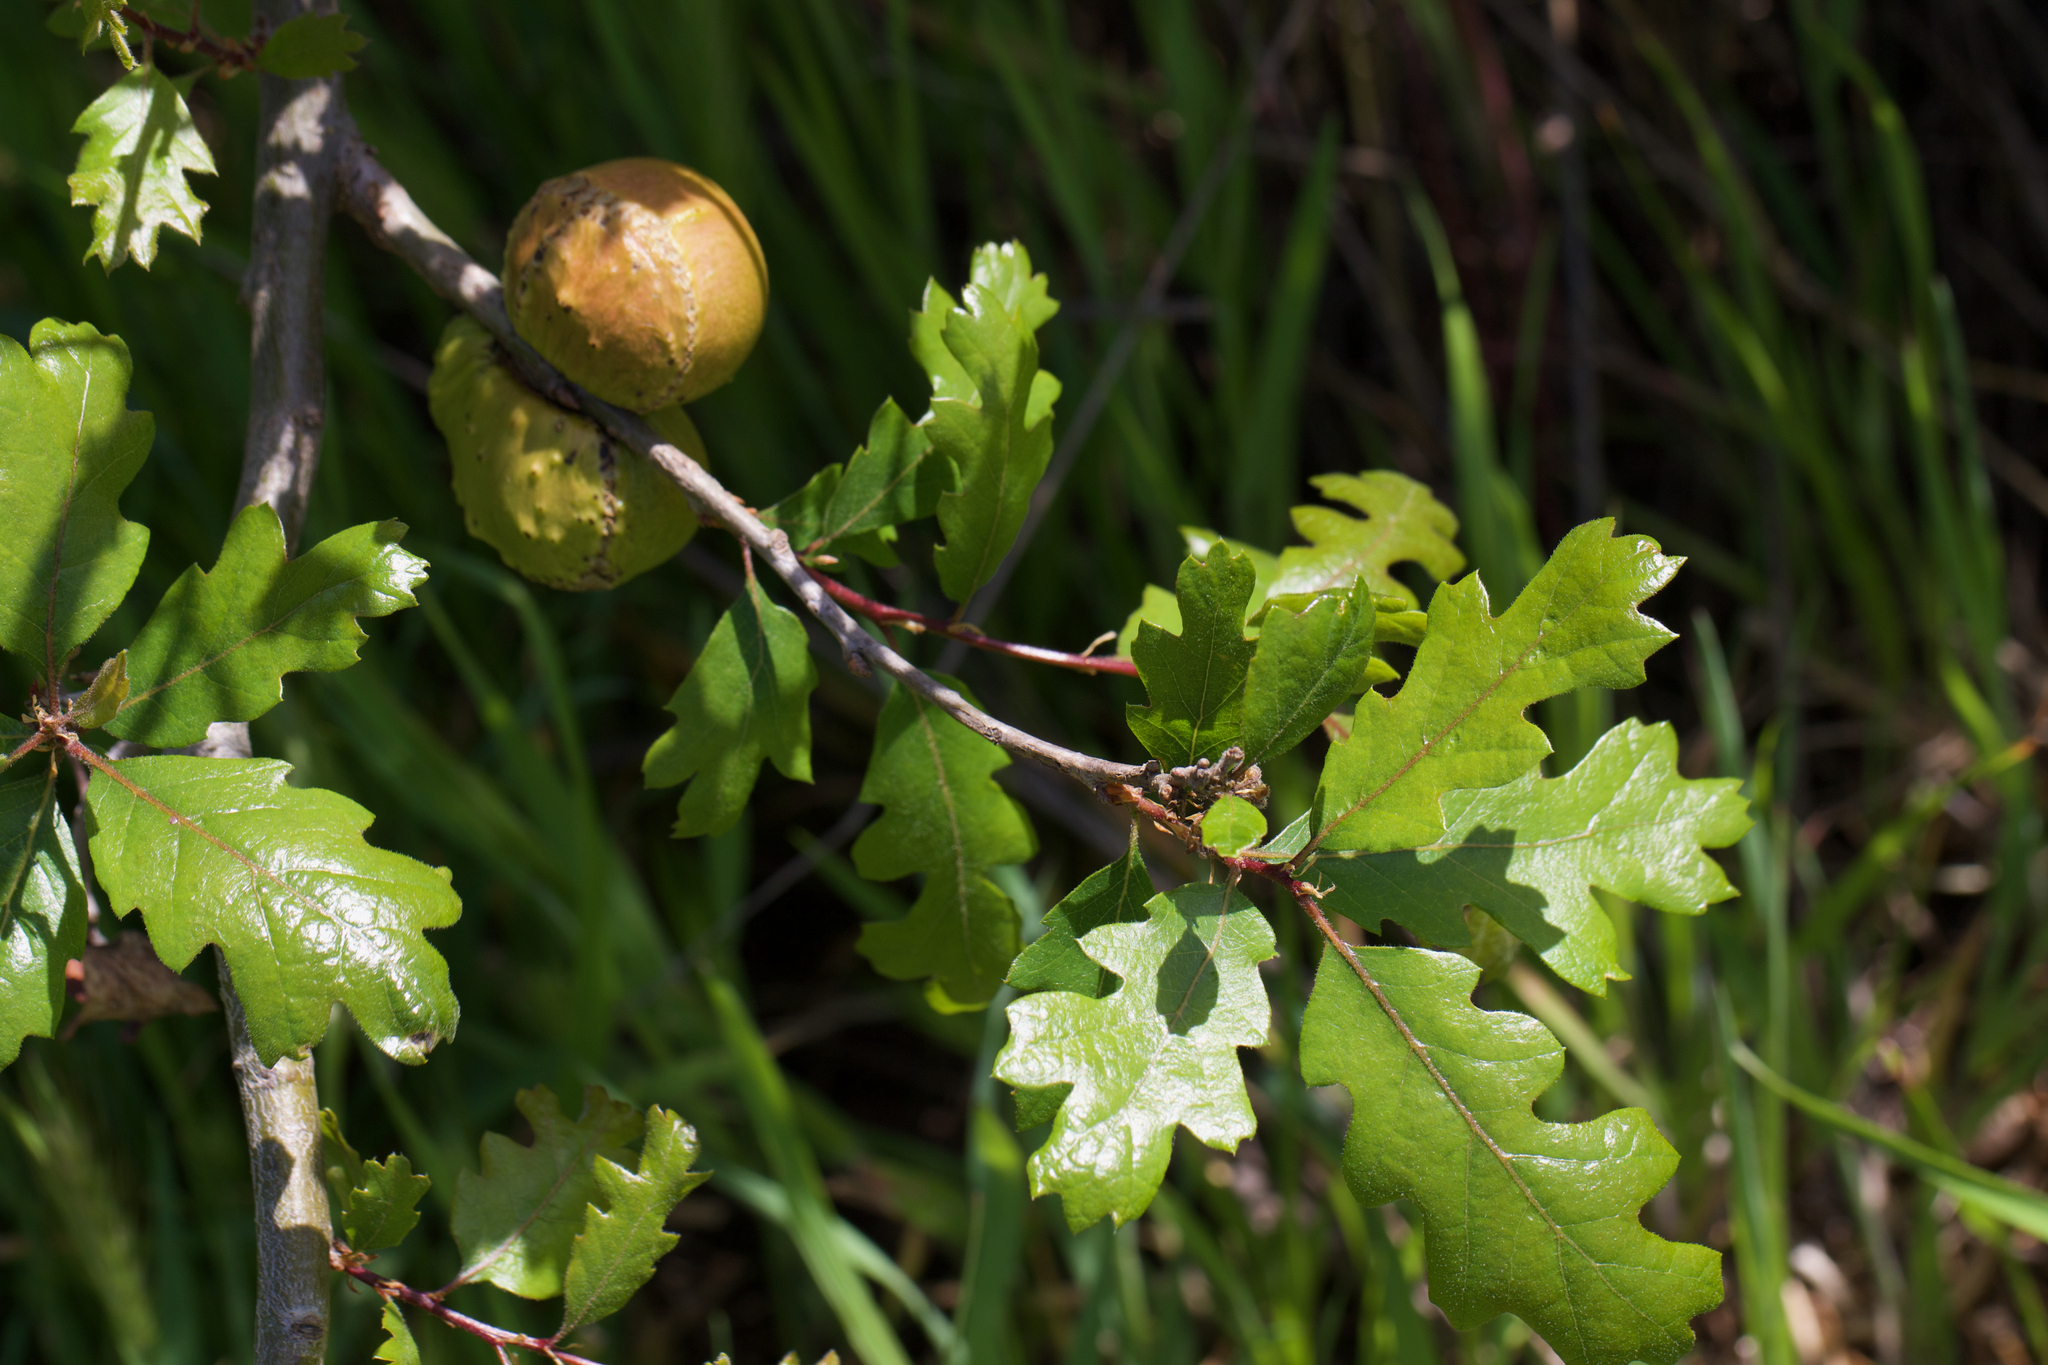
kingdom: Animalia
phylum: Arthropoda
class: Insecta
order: Hymenoptera
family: Cynipidae
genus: Andricus
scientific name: Andricus quercuscalifornicus
